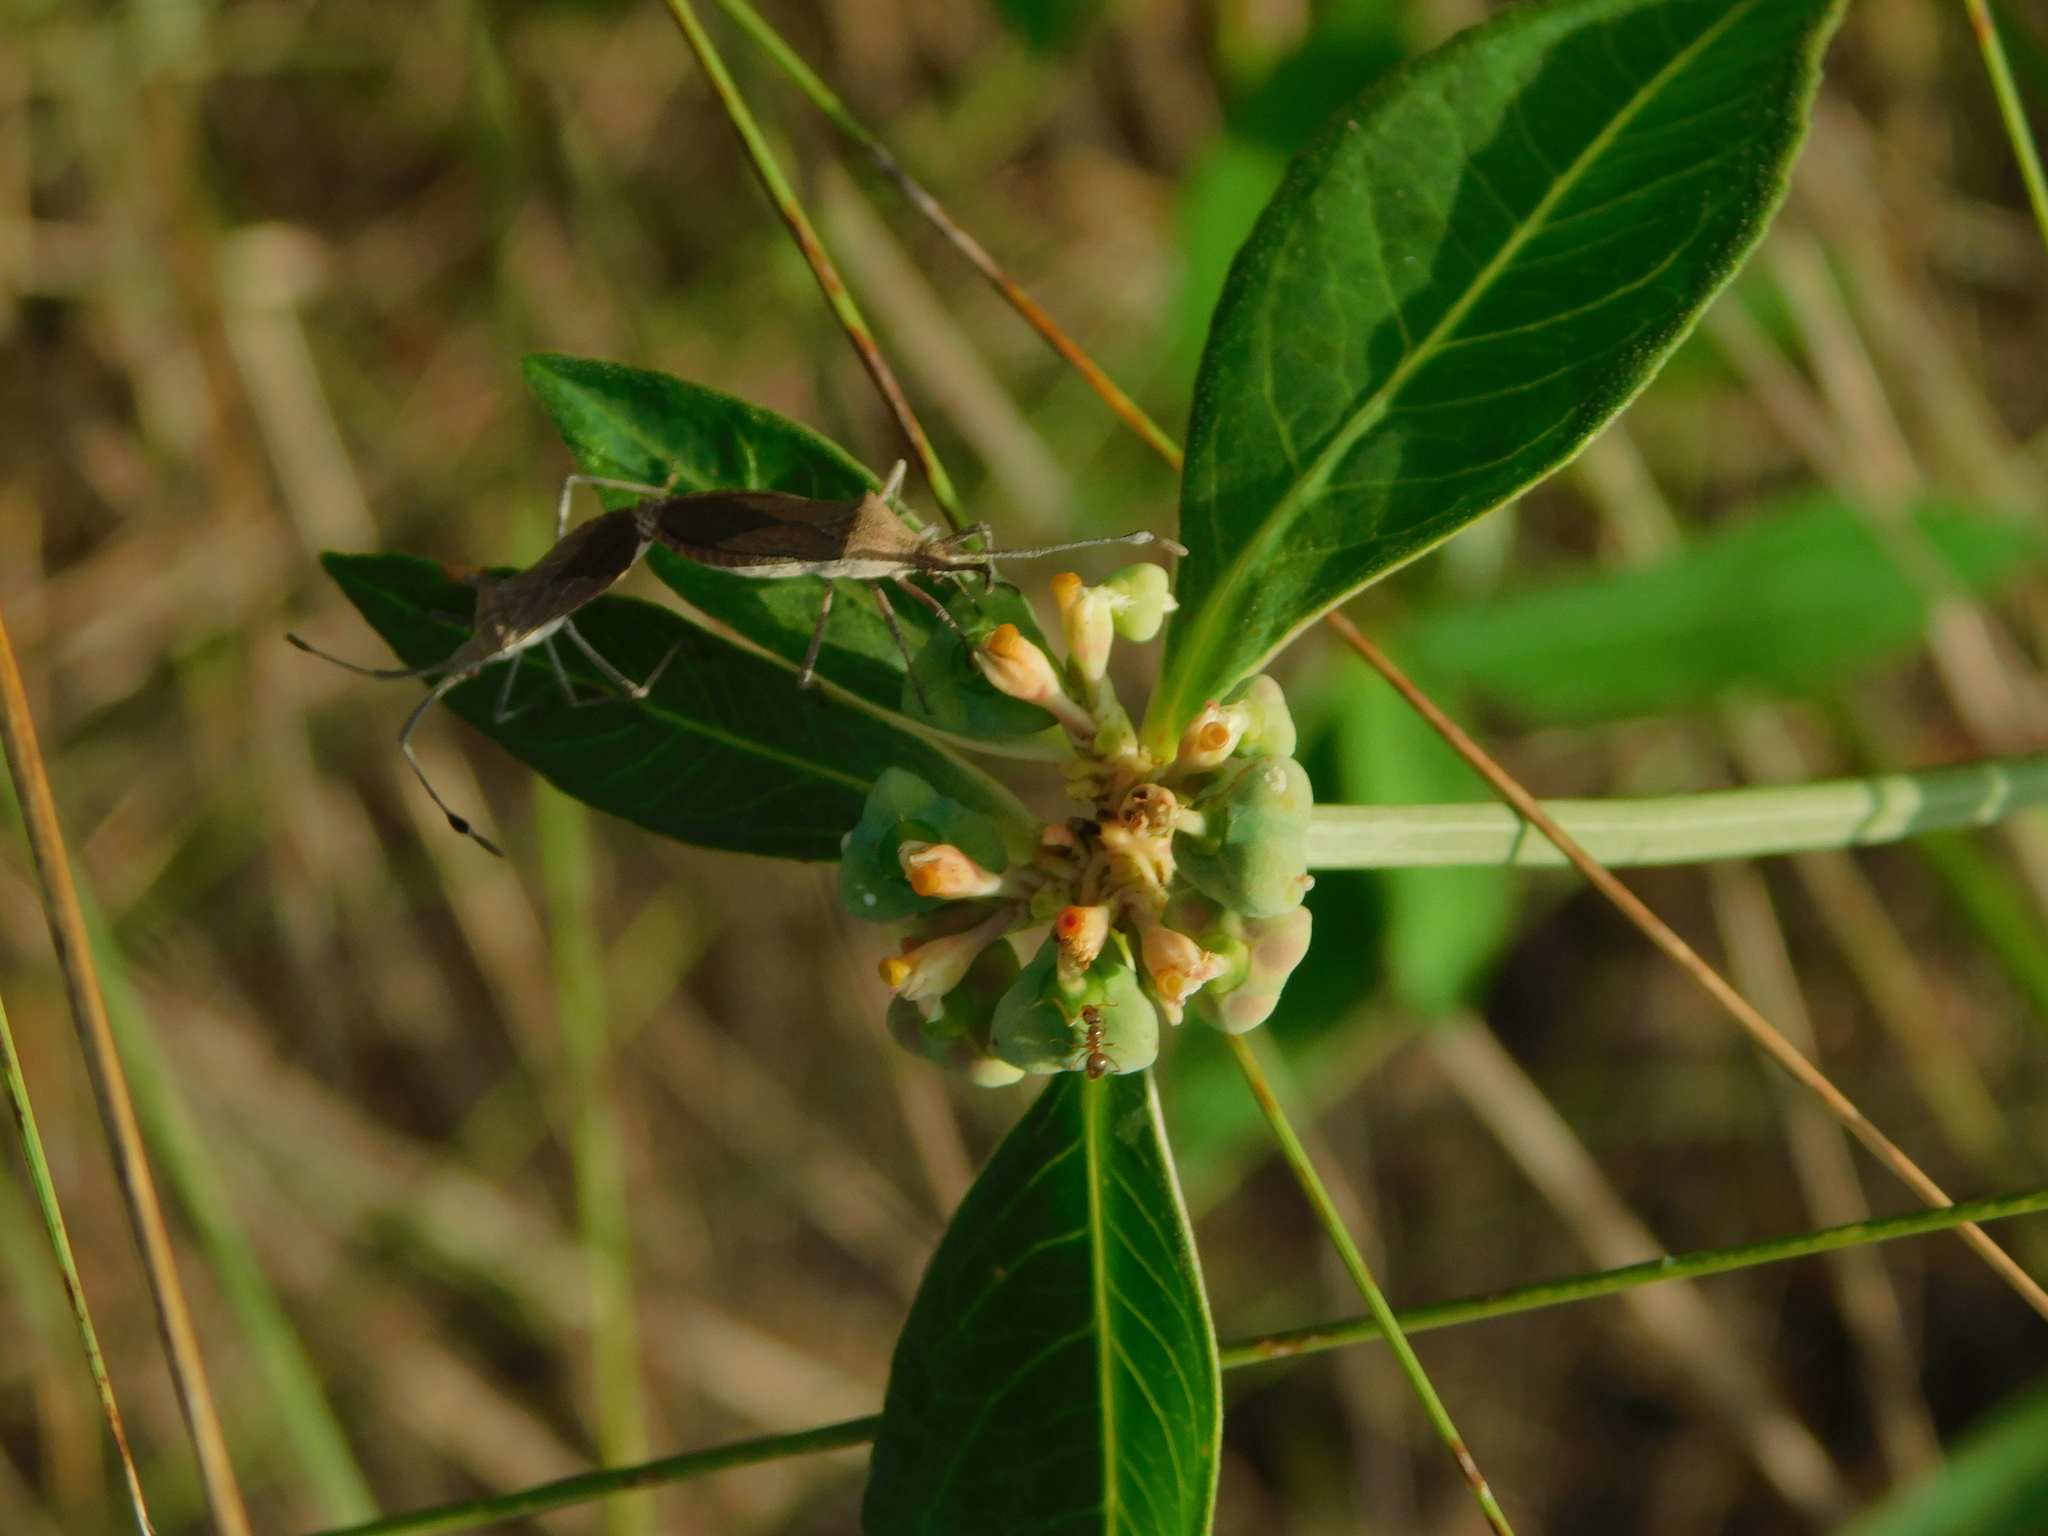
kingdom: Animalia
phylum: Arthropoda
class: Insecta
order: Hemiptera
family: Coreidae
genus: Chariesterus
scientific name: Chariesterus antennator
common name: Flat horned coreid
